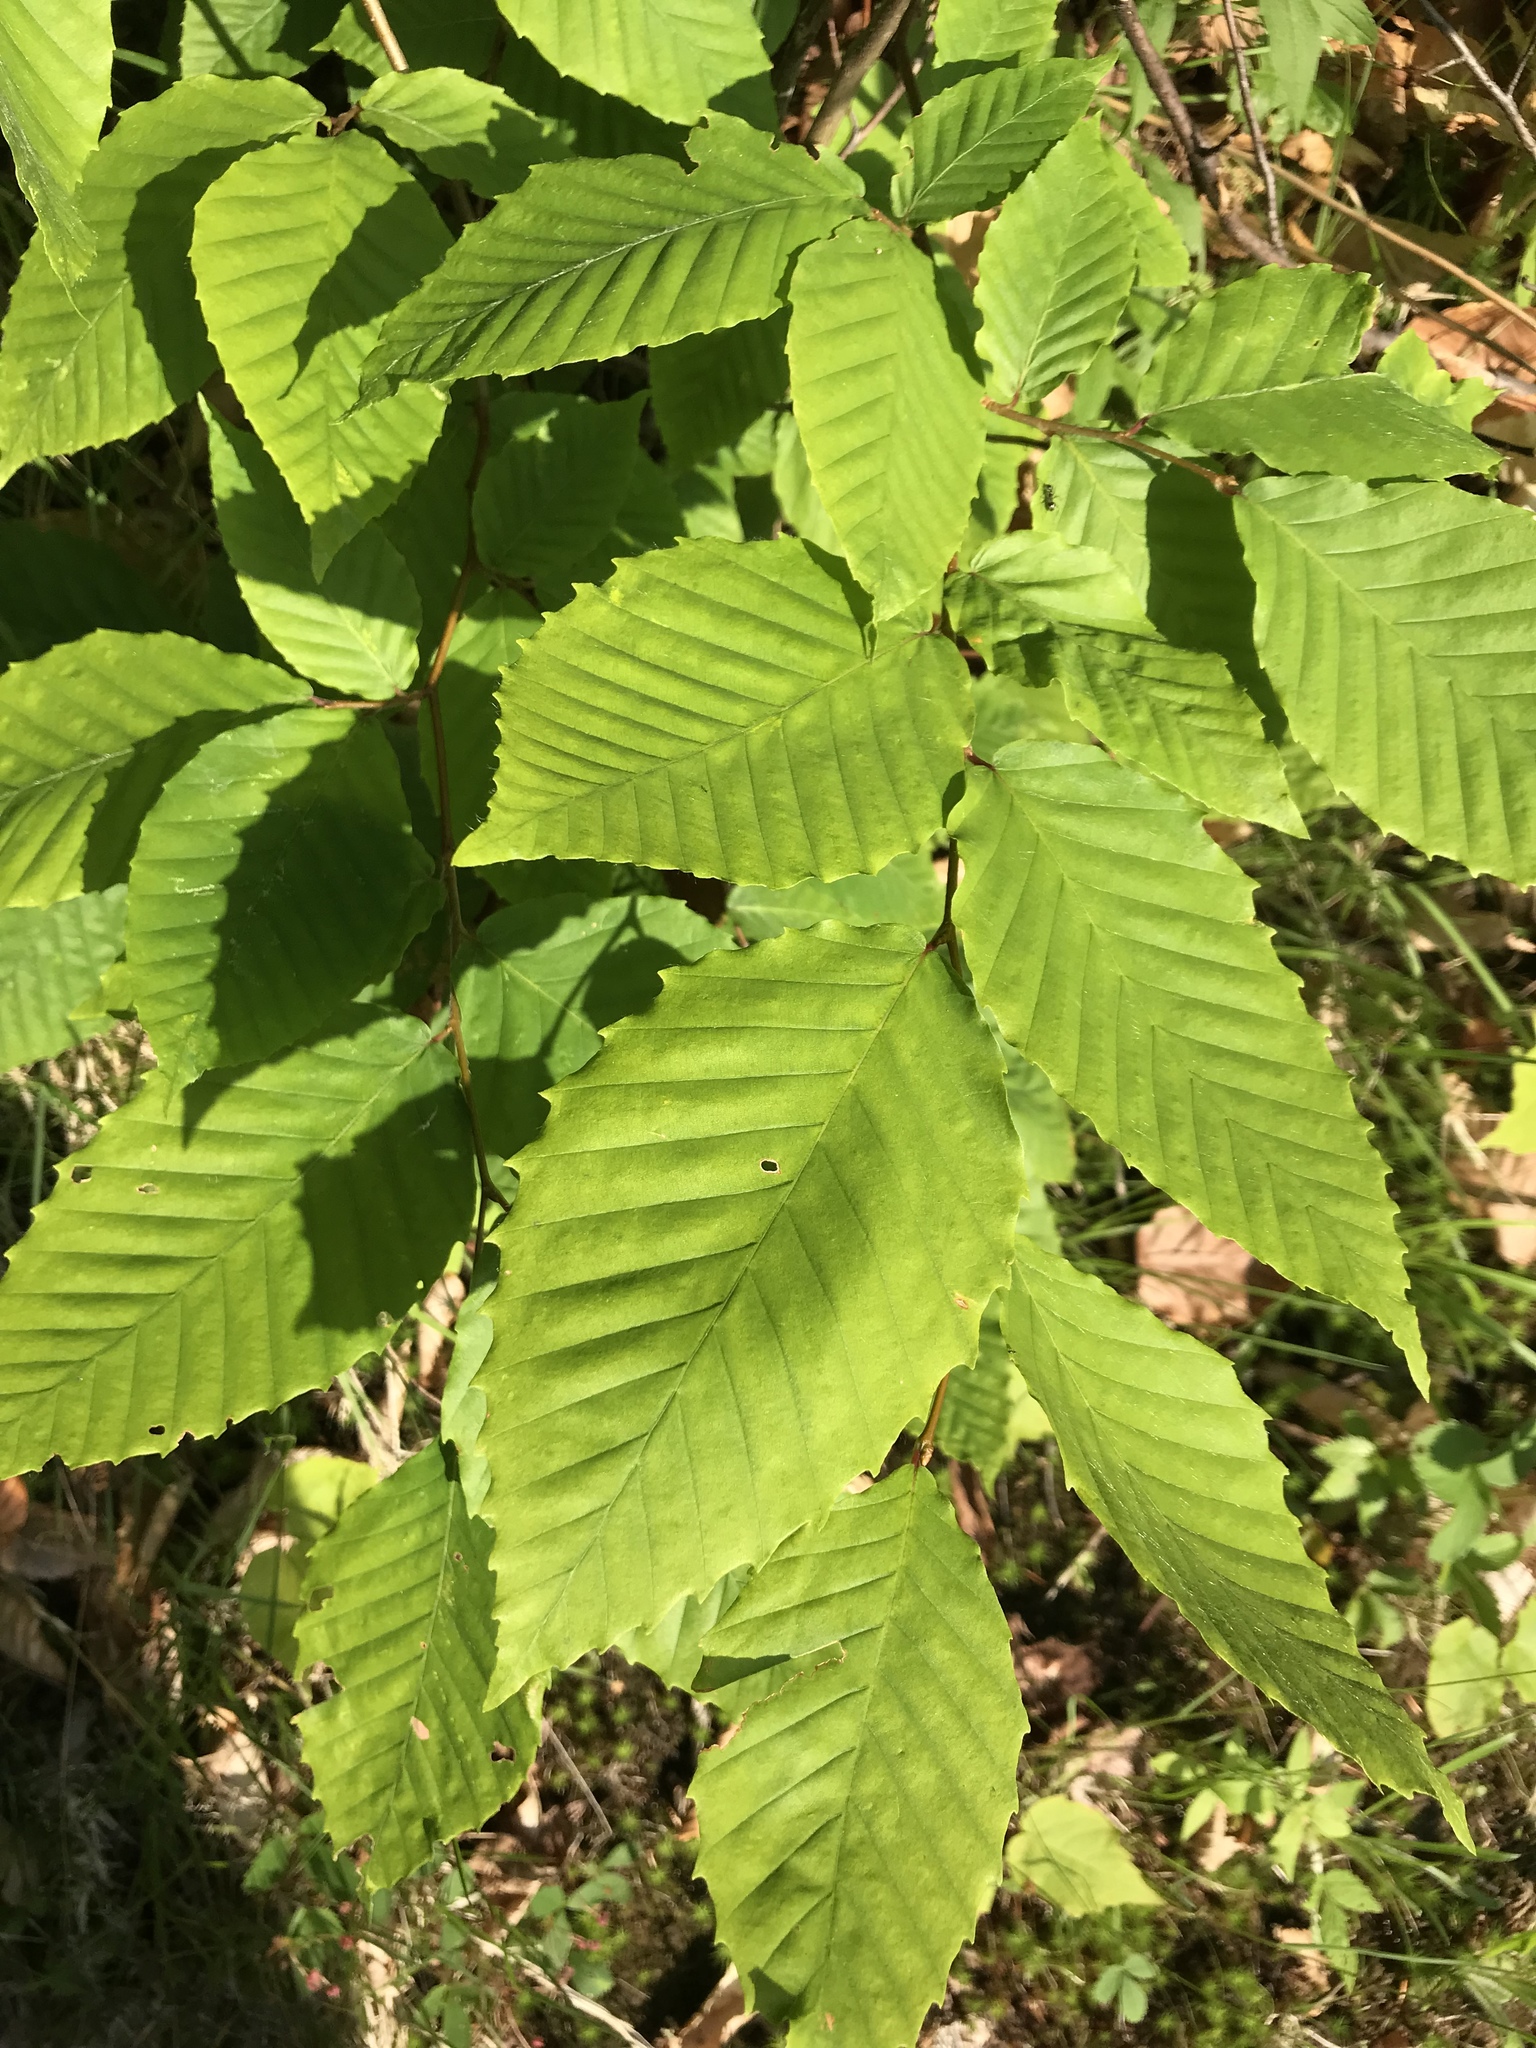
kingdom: Plantae
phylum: Tracheophyta
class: Magnoliopsida
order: Fagales
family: Fagaceae
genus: Fagus
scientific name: Fagus grandifolia
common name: American beech
